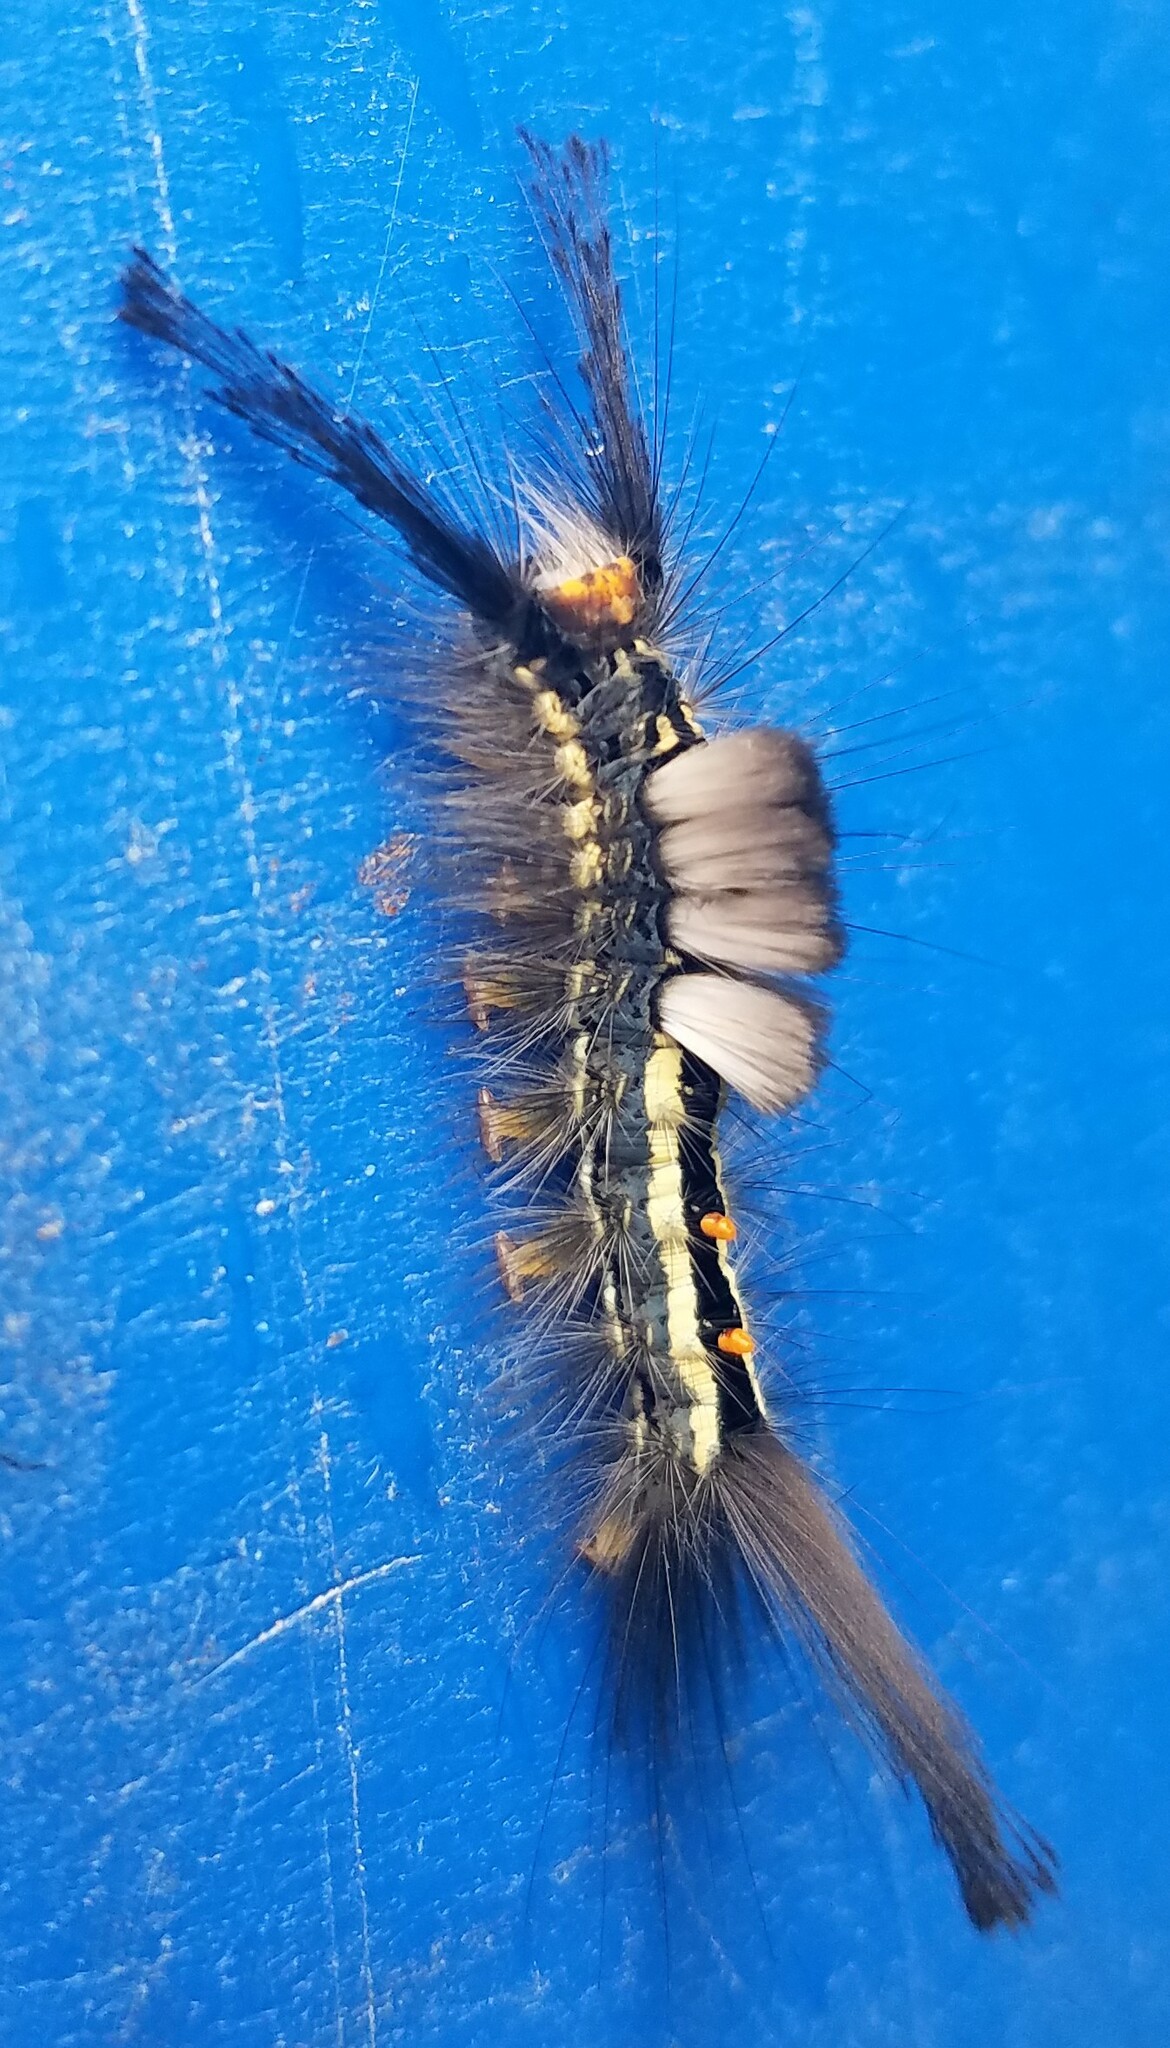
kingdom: Animalia
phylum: Arthropoda
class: Insecta
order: Lepidoptera
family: Erebidae
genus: Orgyia
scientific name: Orgyia leucostigma
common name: White-marked tussock moth
